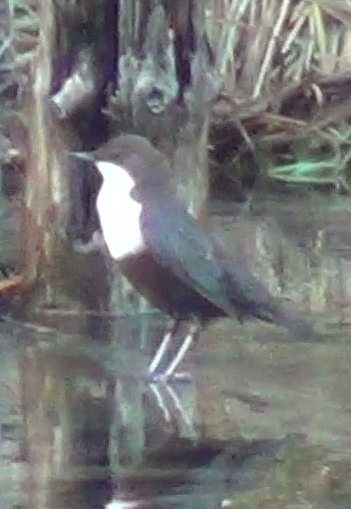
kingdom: Animalia
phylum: Chordata
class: Aves
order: Passeriformes
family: Cinclidae
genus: Cinclus
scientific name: Cinclus cinclus
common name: White-throated dipper
